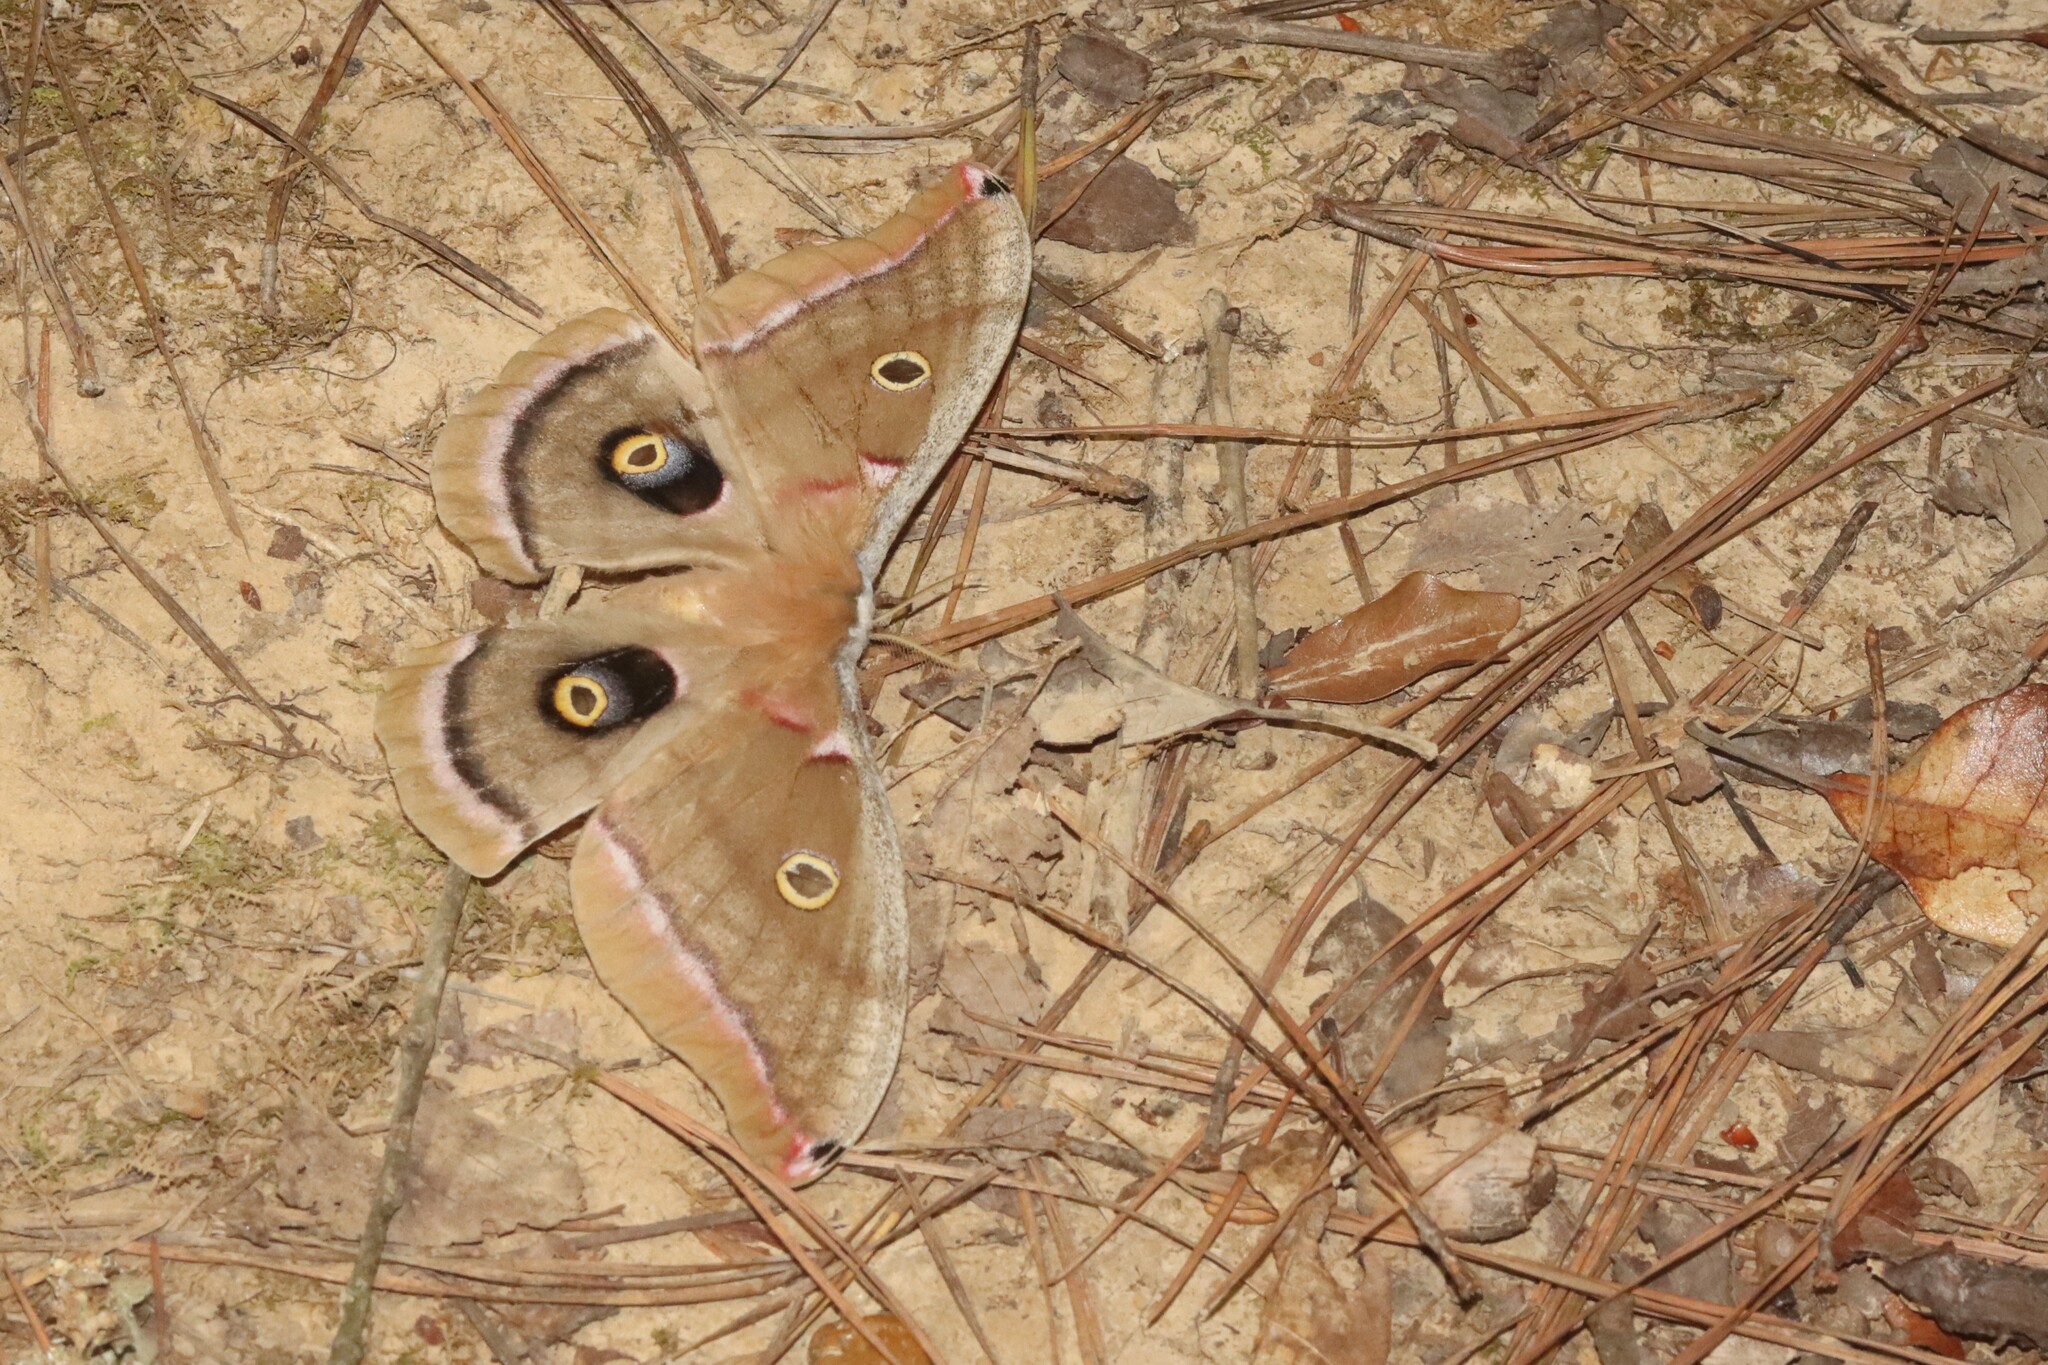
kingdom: Animalia
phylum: Arthropoda
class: Insecta
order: Lepidoptera
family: Saturniidae
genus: Antheraea
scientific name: Antheraea polyphemus
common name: Polyphemus moth
